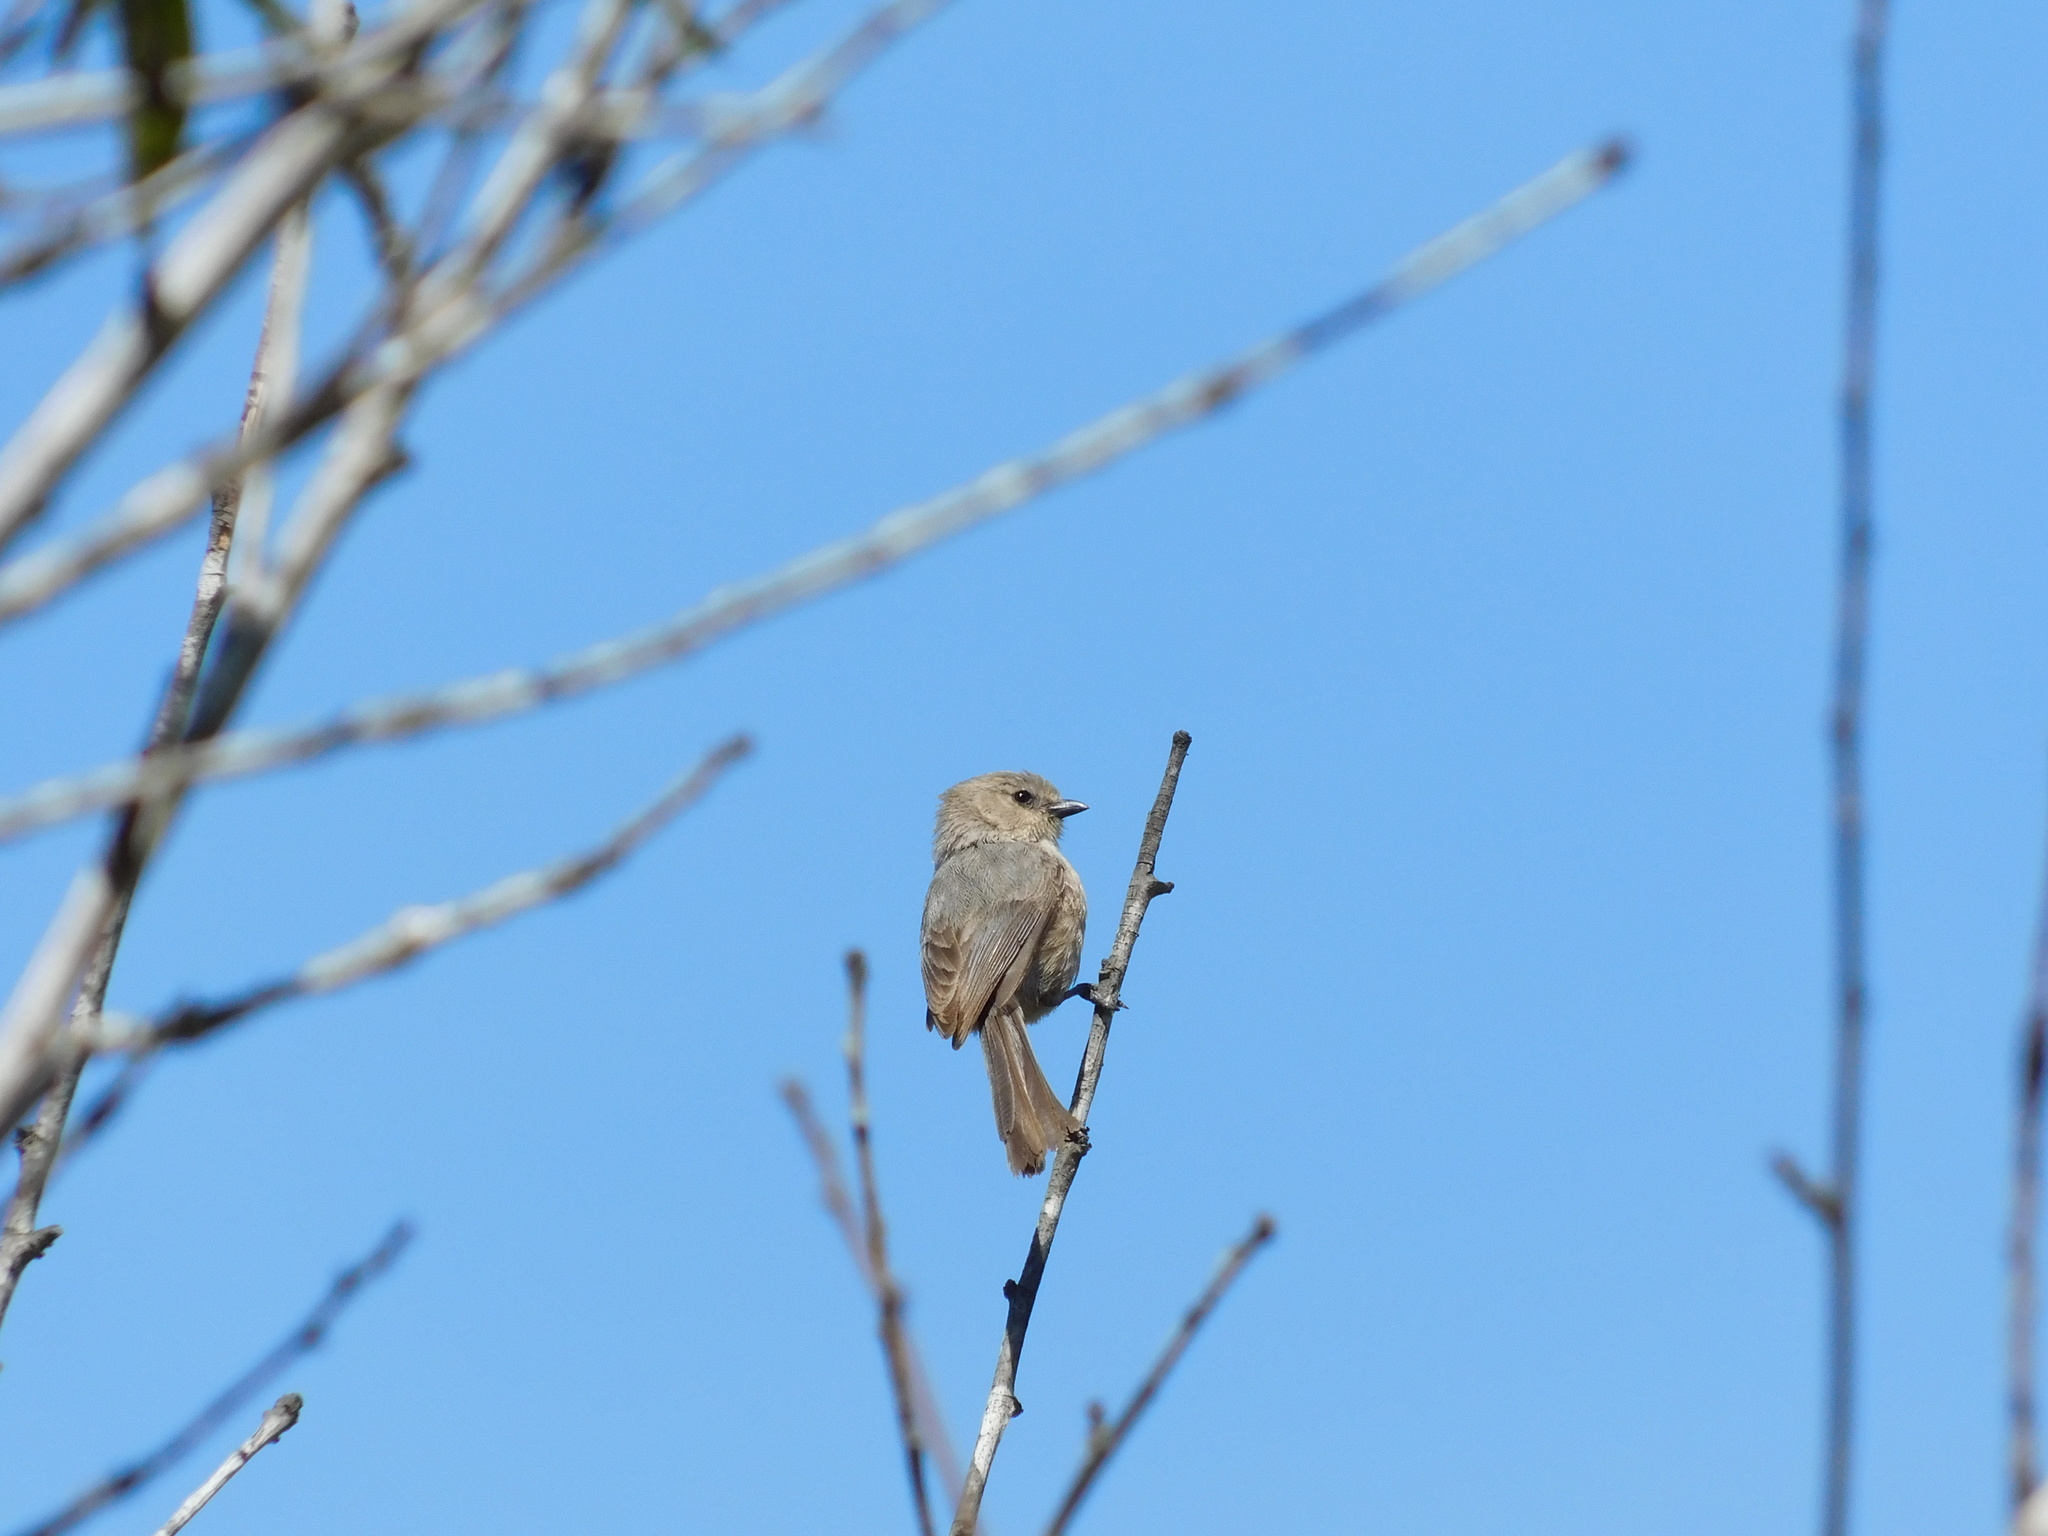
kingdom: Animalia
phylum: Chordata
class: Aves
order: Passeriformes
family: Aegithalidae
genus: Psaltriparus
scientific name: Psaltriparus minimus
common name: American bushtit
